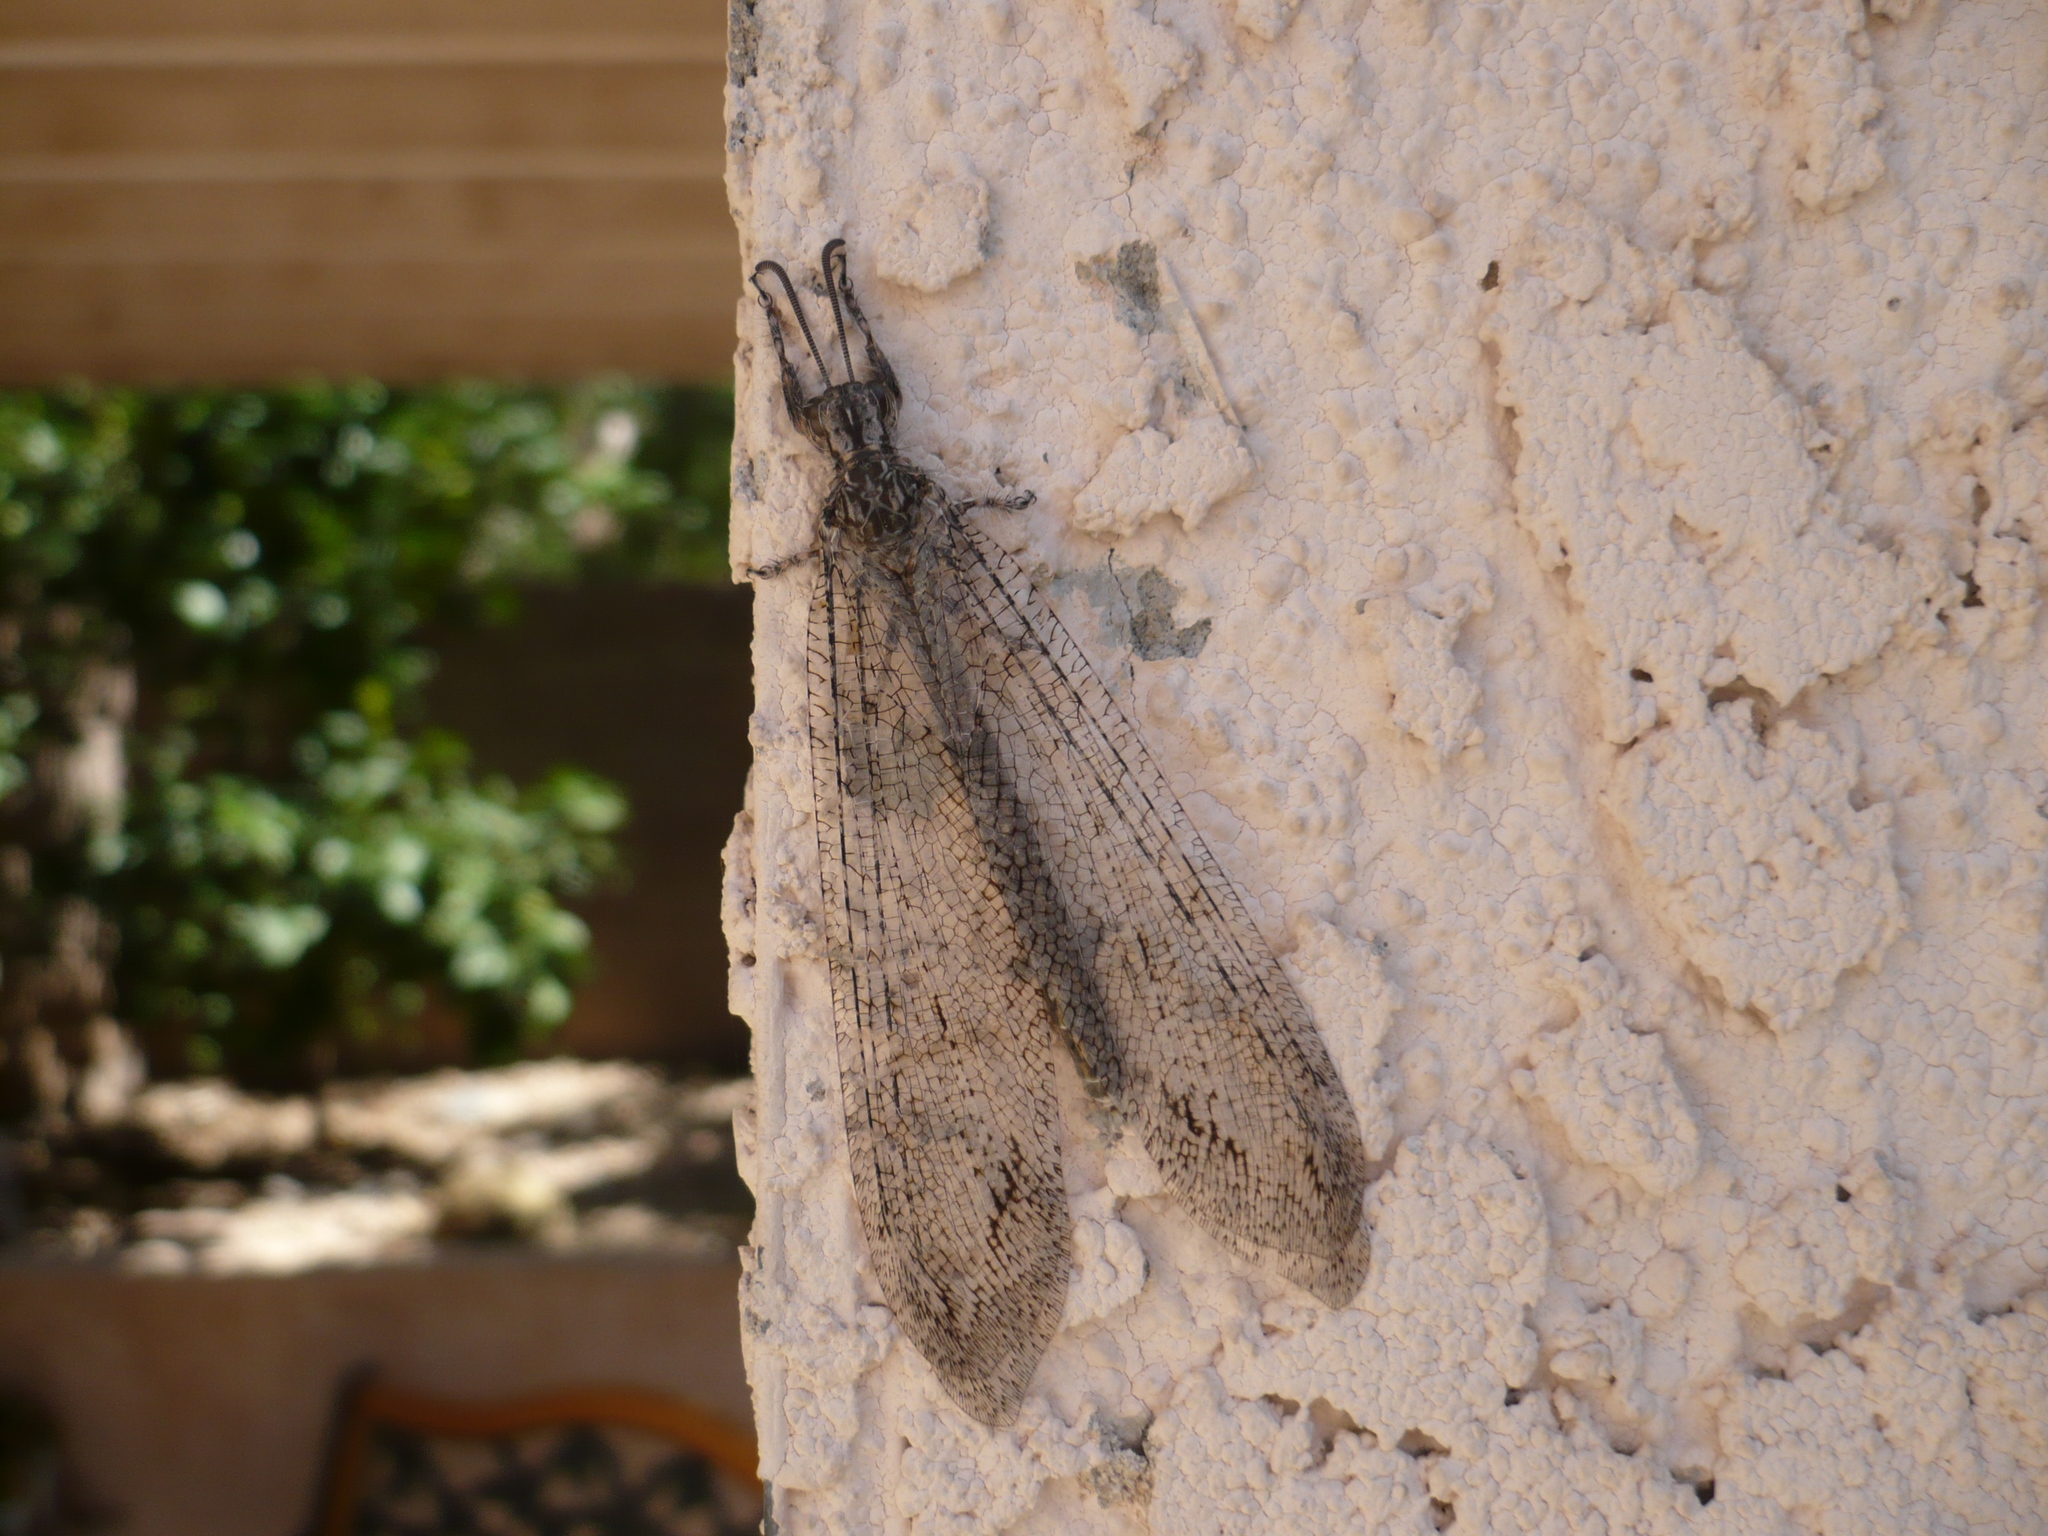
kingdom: Animalia
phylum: Arthropoda
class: Insecta
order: Neuroptera
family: Myrmeleontidae
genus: Vella
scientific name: Vella fallax
